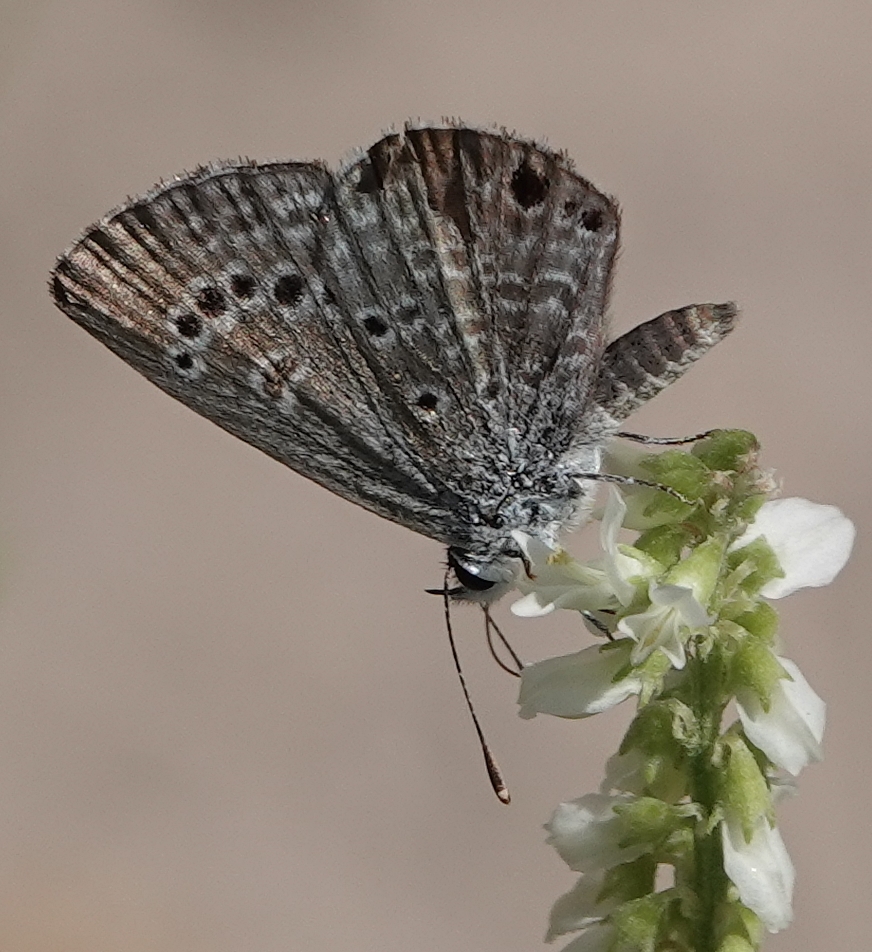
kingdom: Animalia
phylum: Arthropoda
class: Insecta
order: Lepidoptera
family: Lycaenidae
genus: Echinargus
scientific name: Echinargus isola
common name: Reakirt's blue
